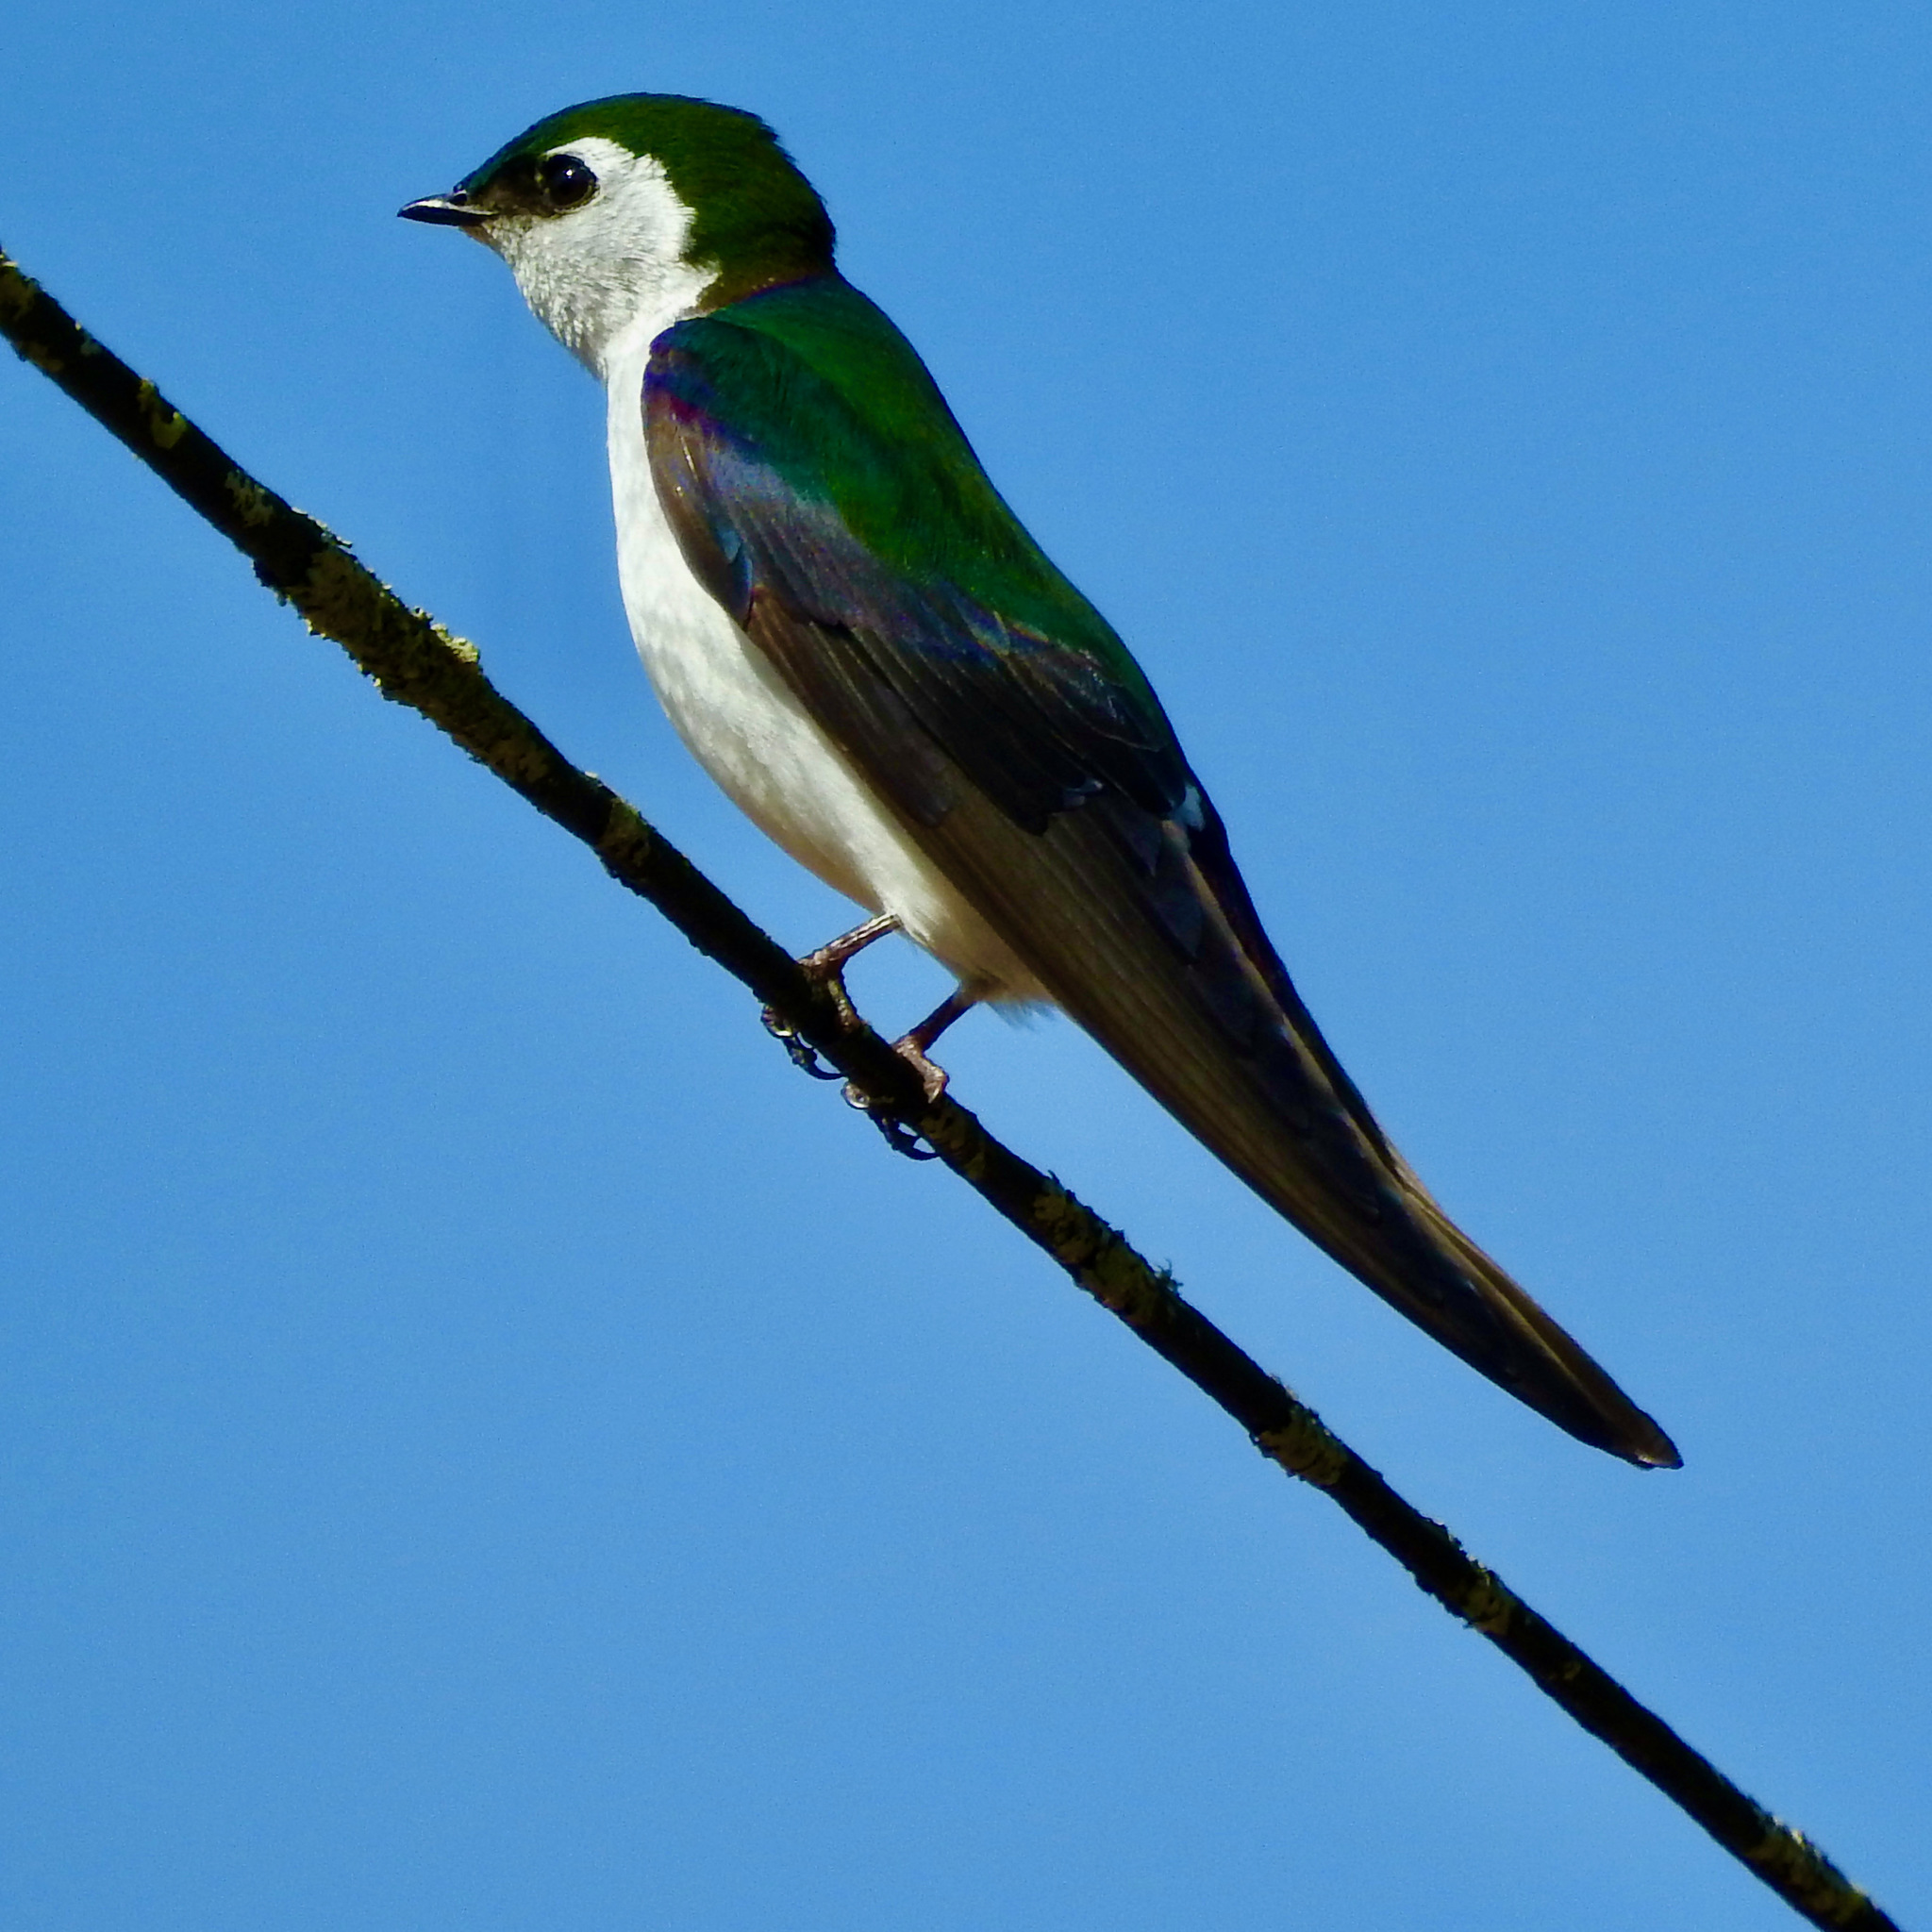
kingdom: Animalia
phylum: Chordata
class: Aves
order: Passeriformes
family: Hirundinidae
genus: Tachycineta
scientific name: Tachycineta thalassina
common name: Violet-green swallow
